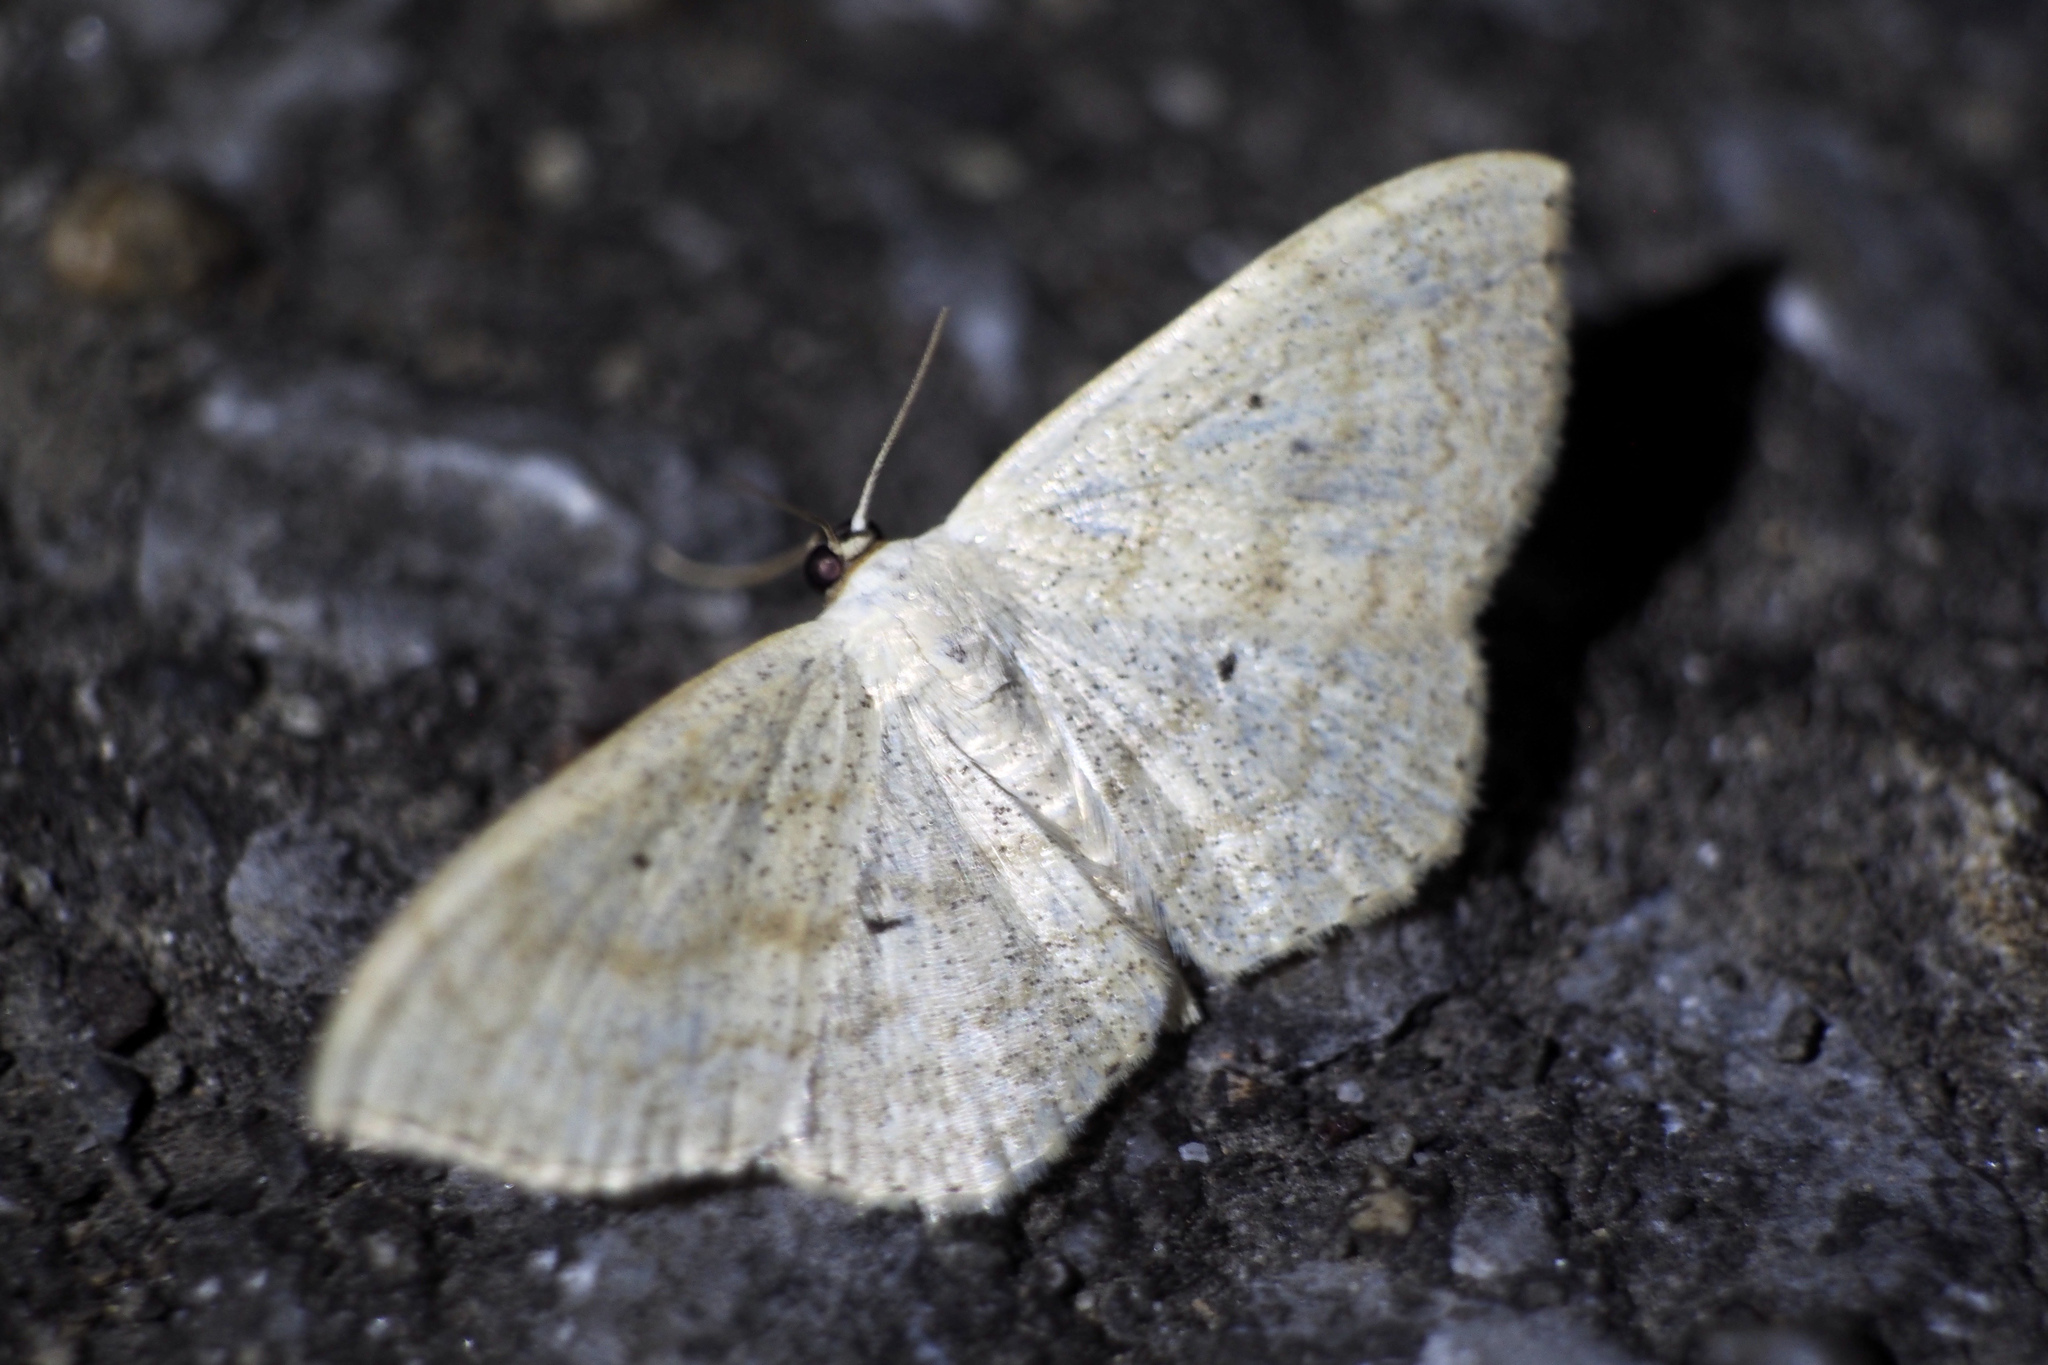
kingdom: Animalia
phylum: Arthropoda
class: Insecta
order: Lepidoptera
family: Geometridae
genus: Scopula
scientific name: Scopula ignobilis
